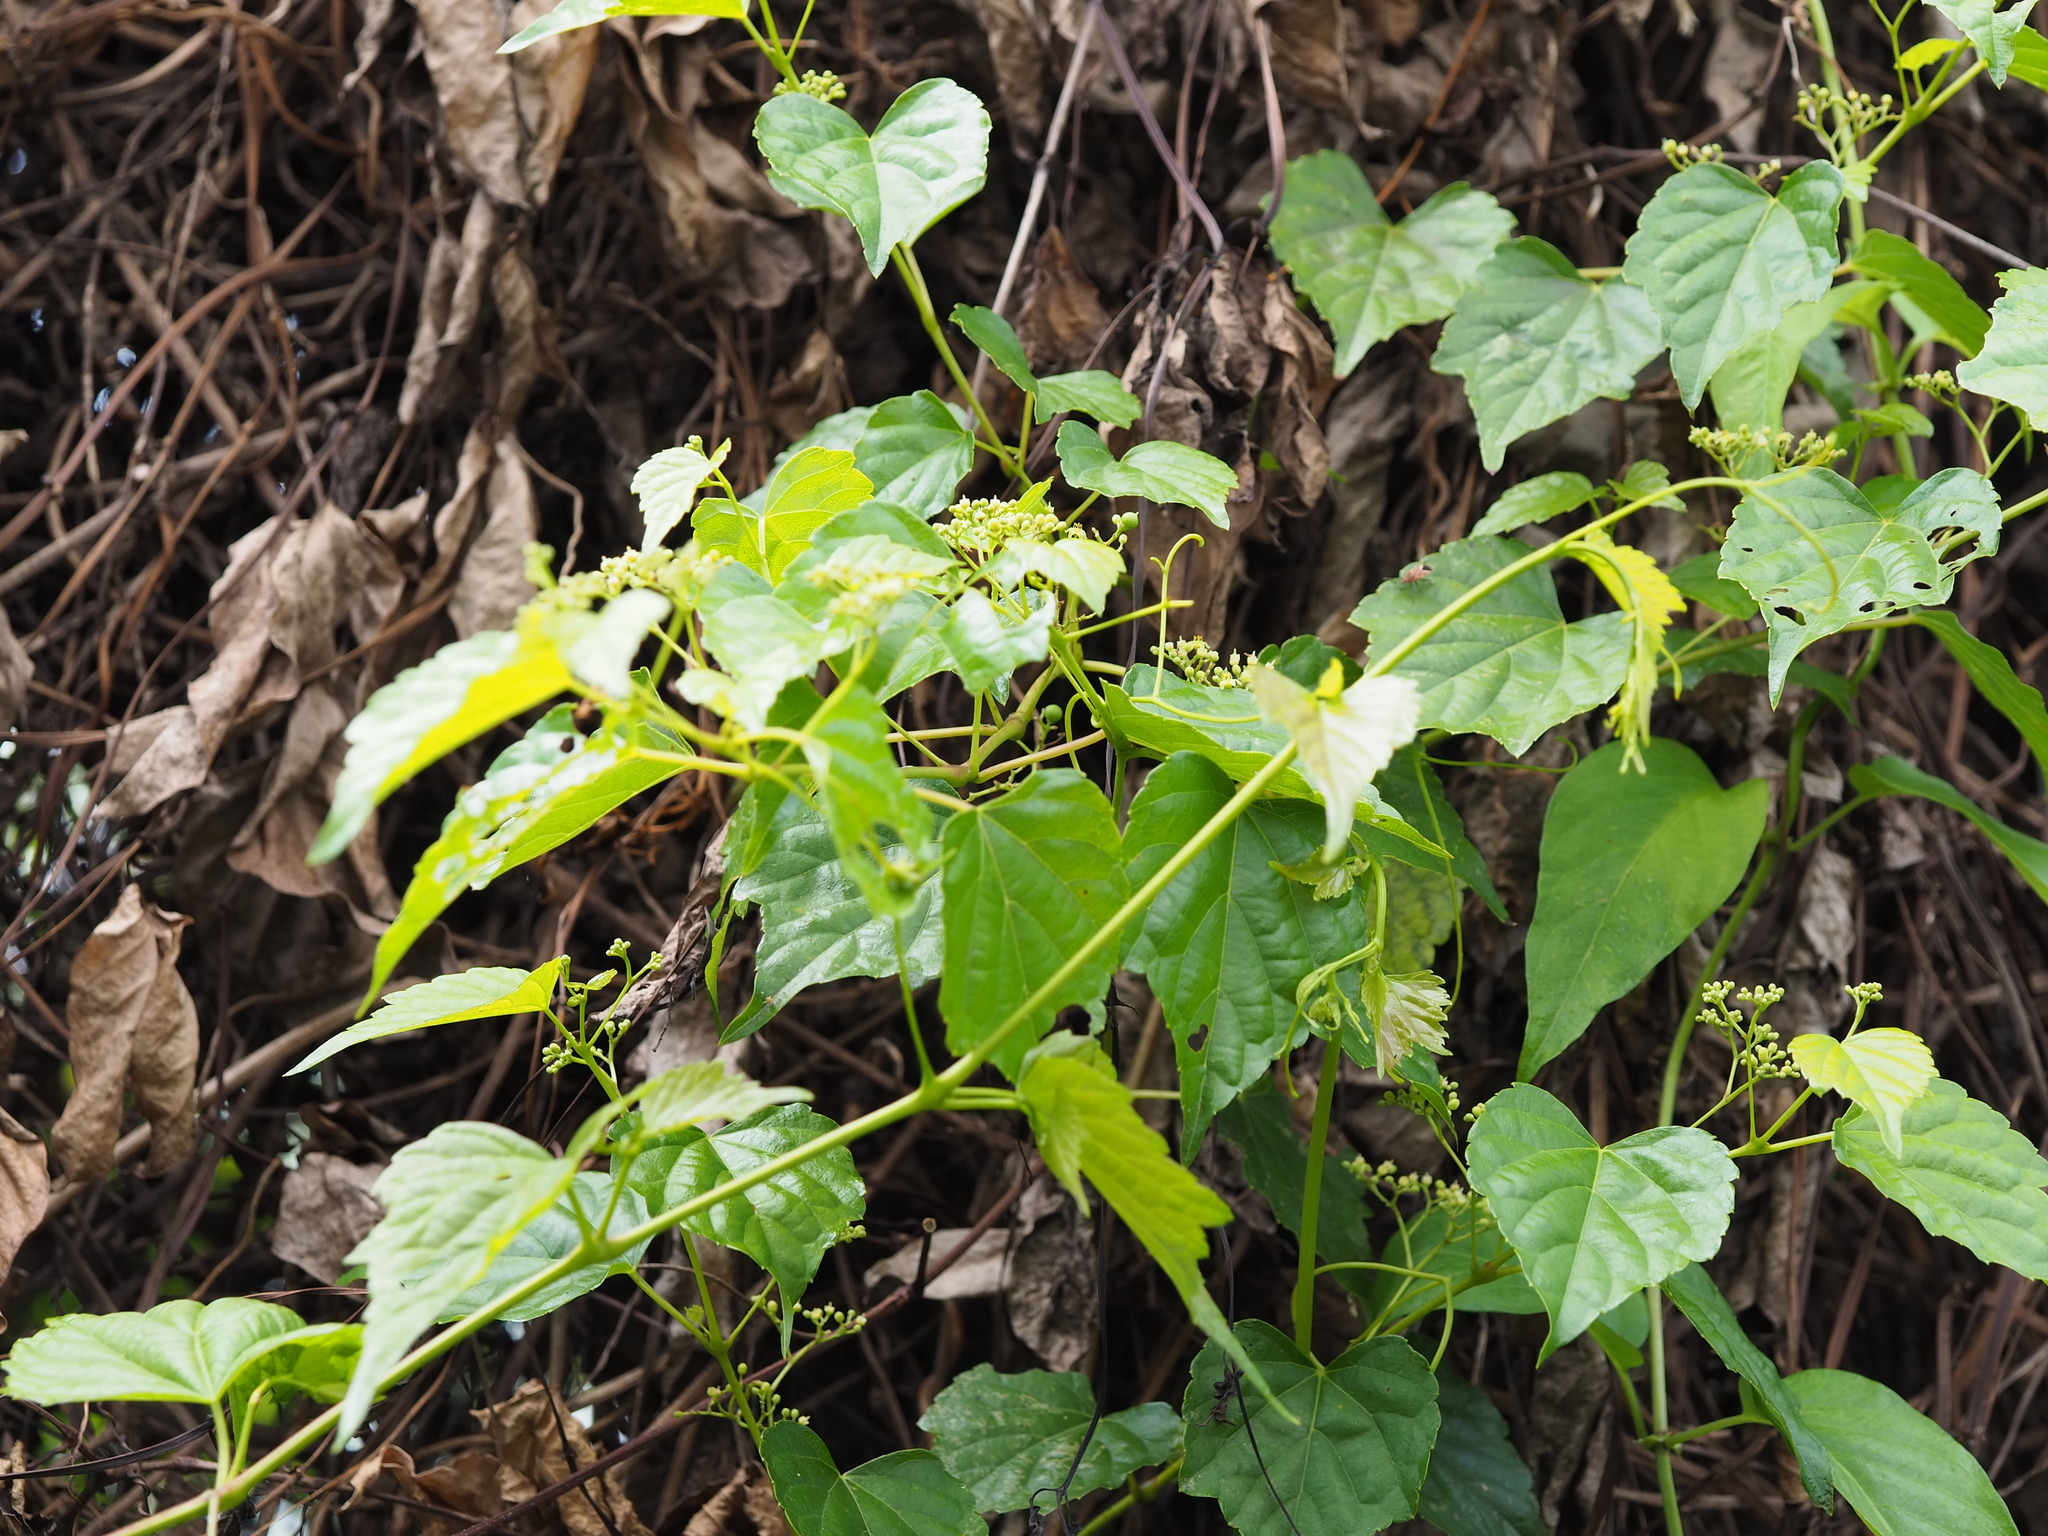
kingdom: Plantae
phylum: Tracheophyta
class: Magnoliopsida
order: Vitales
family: Vitaceae
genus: Ampelopsis
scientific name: Ampelopsis glandulosa
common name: Amur peppervine
